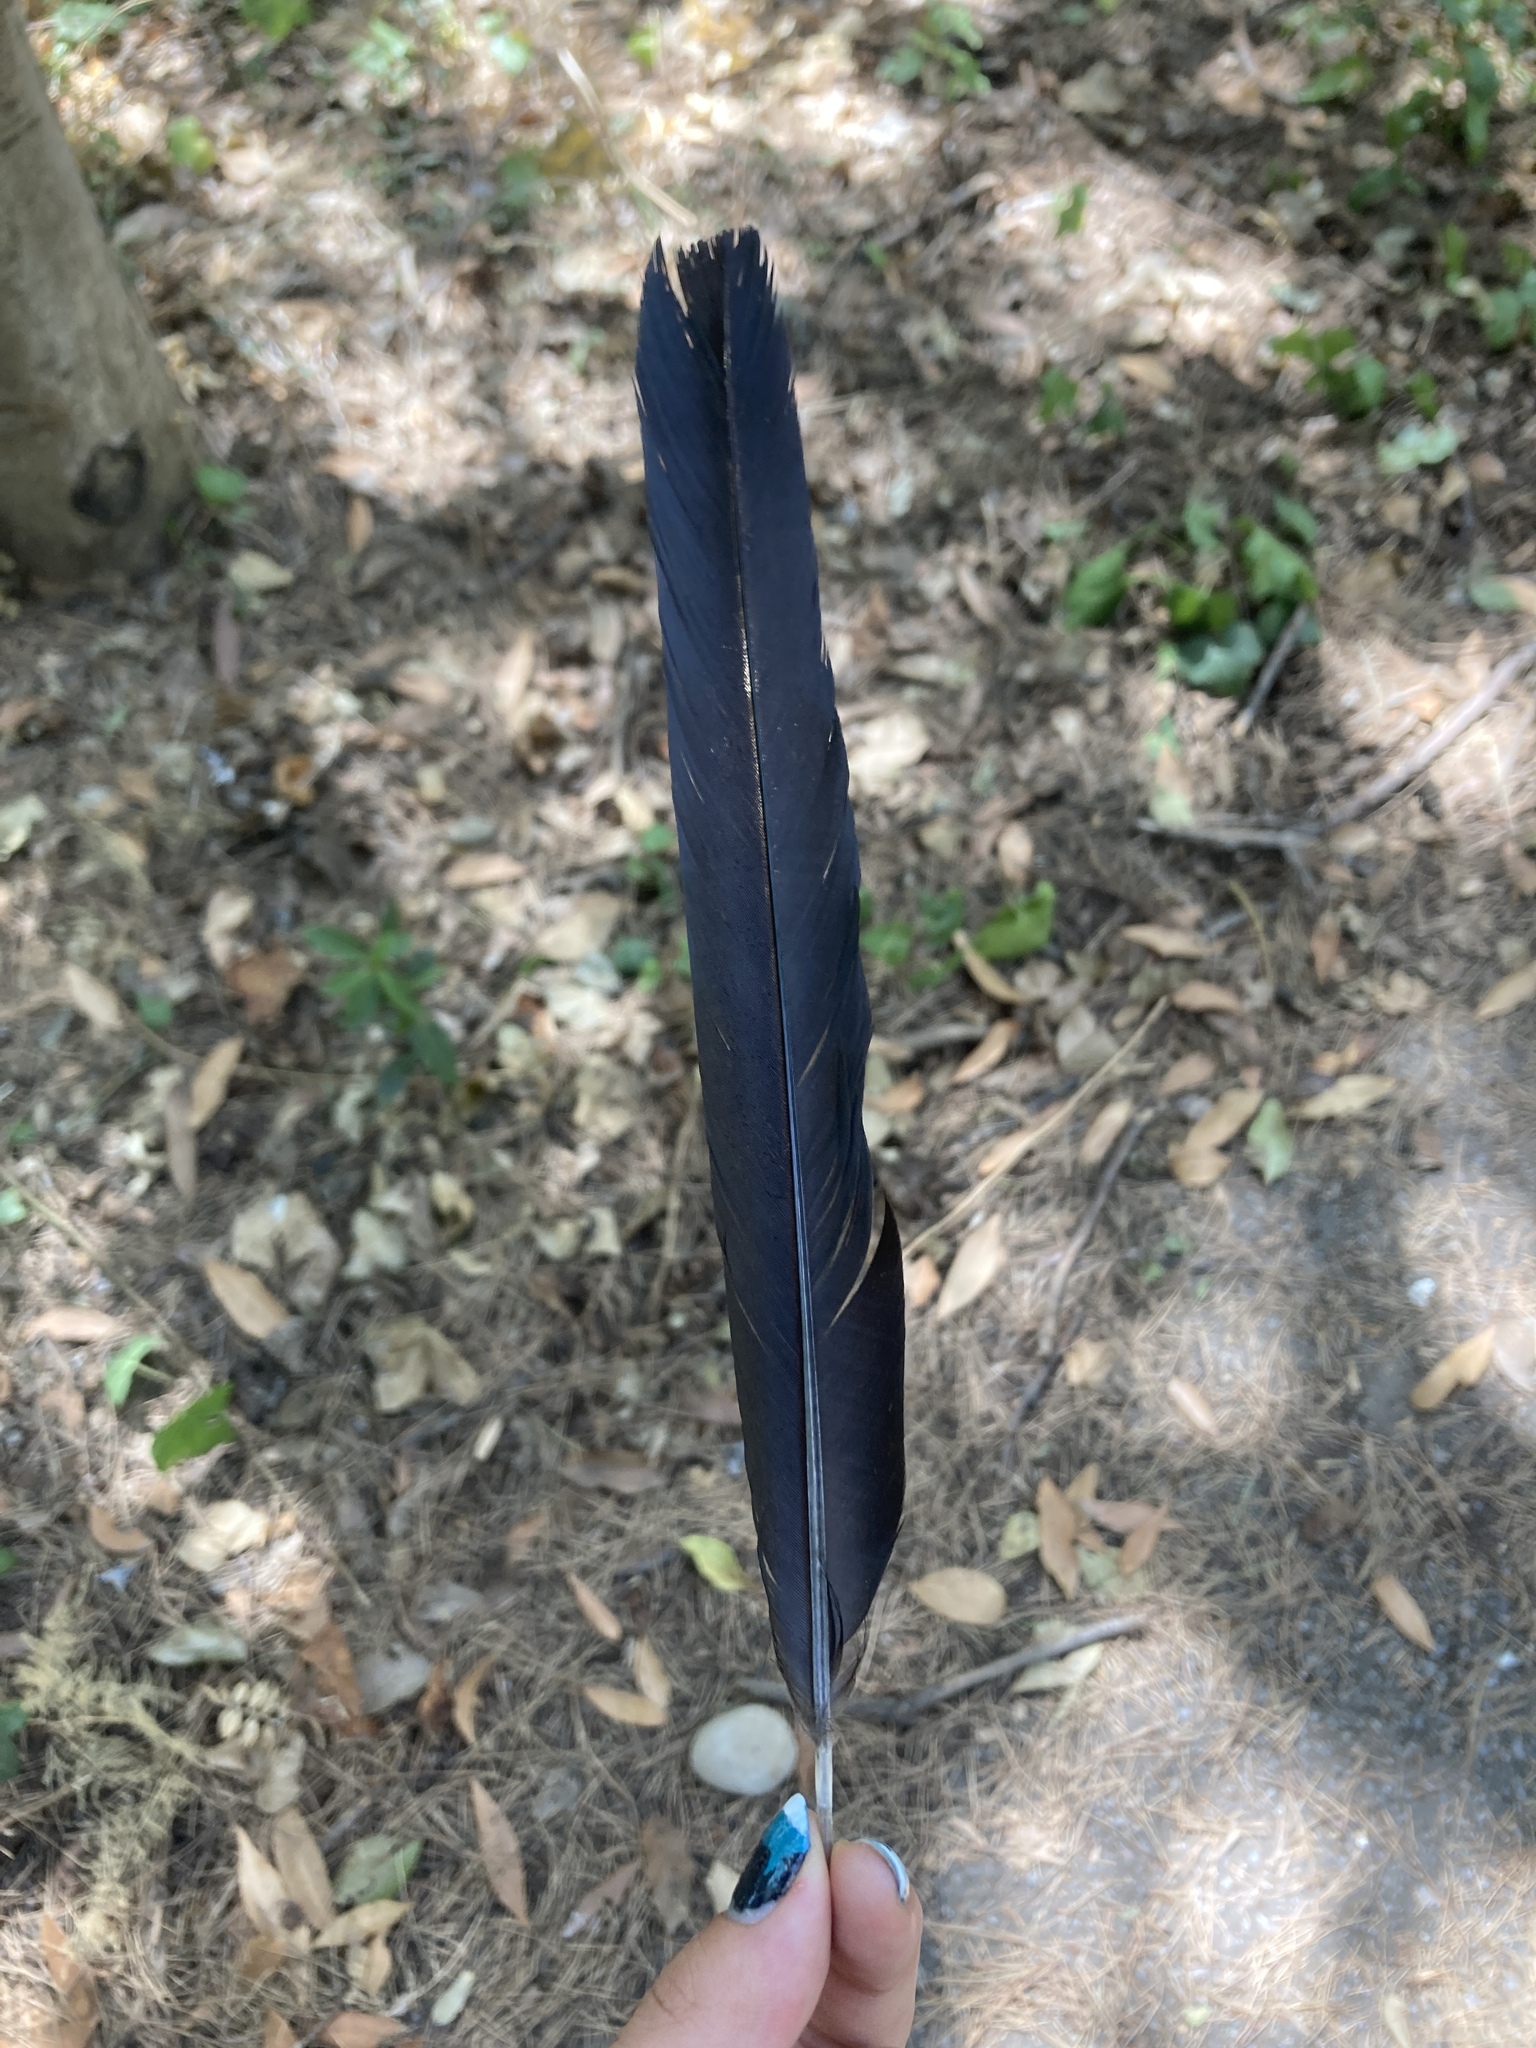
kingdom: Animalia
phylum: Chordata
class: Aves
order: Passeriformes
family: Corvidae
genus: Pica
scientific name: Pica pica
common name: Eurasian magpie
